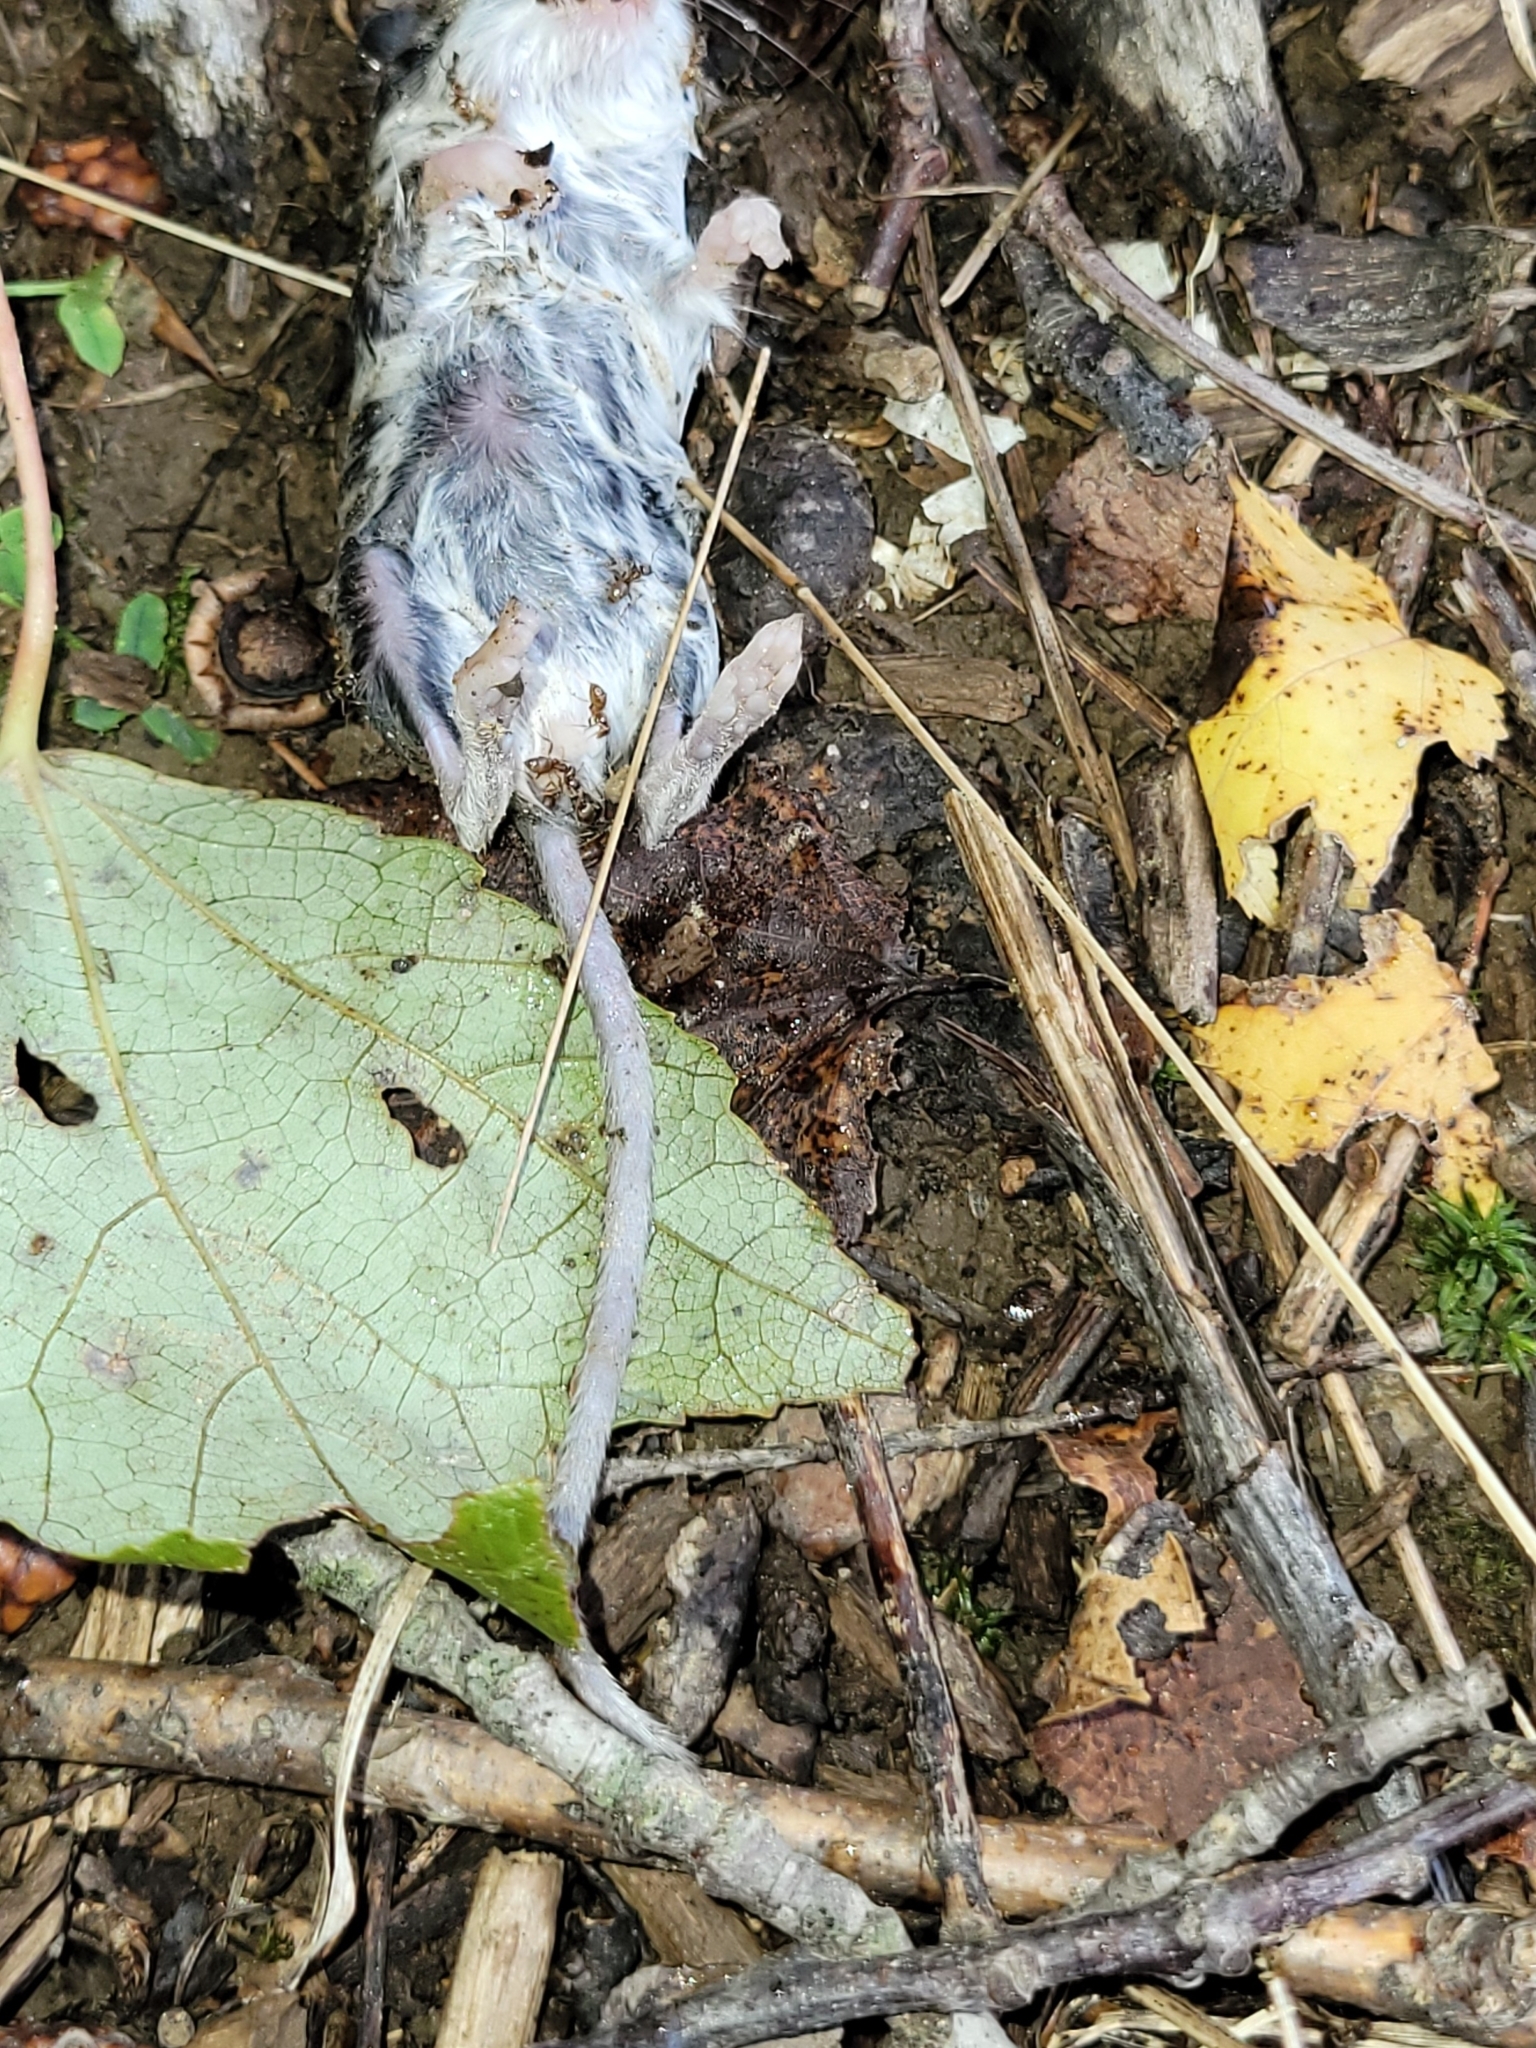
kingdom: Animalia
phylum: Chordata
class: Mammalia
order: Rodentia
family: Cricetidae
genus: Peromyscus
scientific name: Peromyscus leucopus
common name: White-footed deermouse
